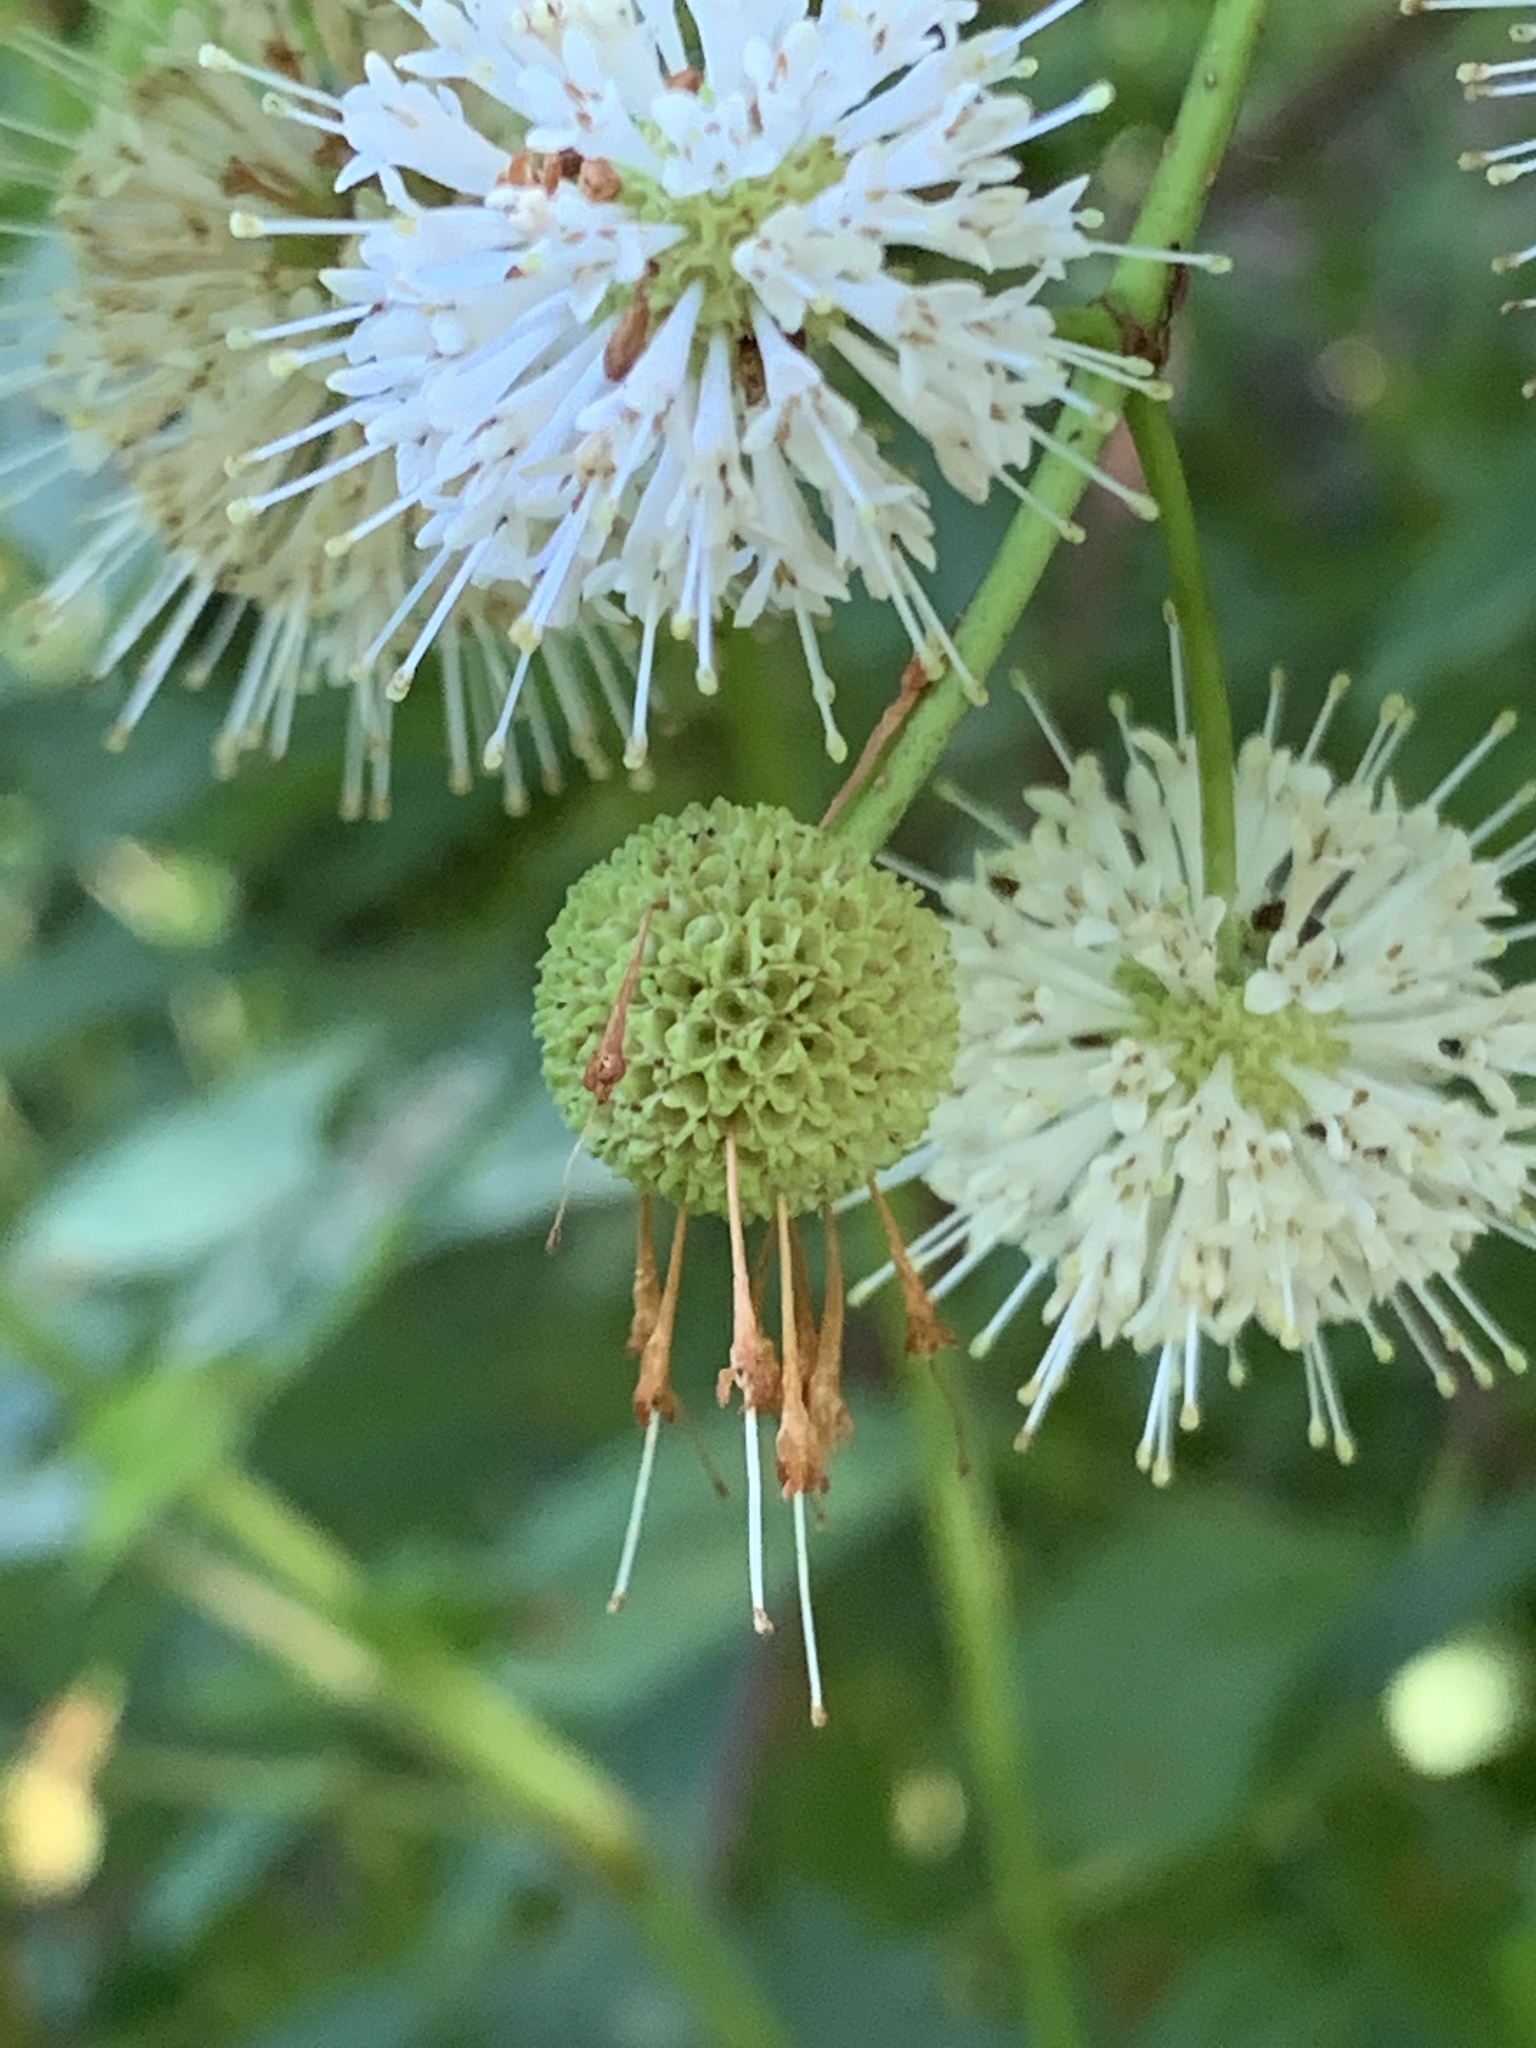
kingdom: Plantae
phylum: Tracheophyta
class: Magnoliopsida
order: Gentianales
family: Rubiaceae
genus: Cephalanthus
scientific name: Cephalanthus occidentalis
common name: Button-willow
